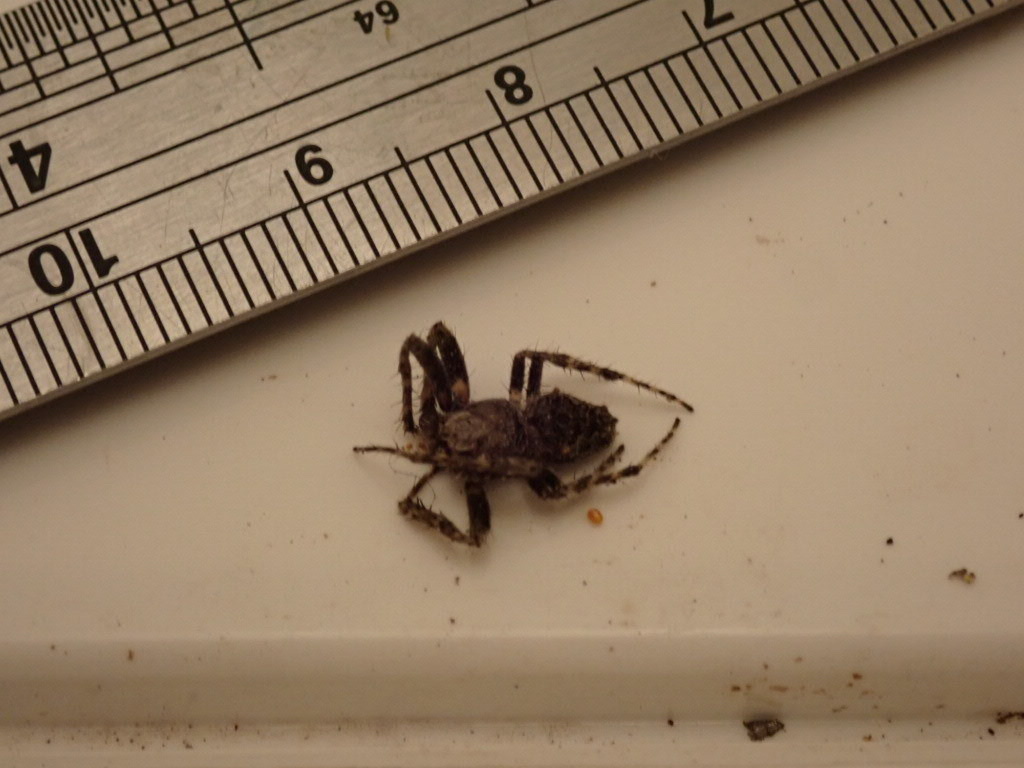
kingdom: Animalia
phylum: Arthropoda
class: Arachnida
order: Araneae
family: Araneidae
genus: Eriophora
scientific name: Eriophora pustulosa
